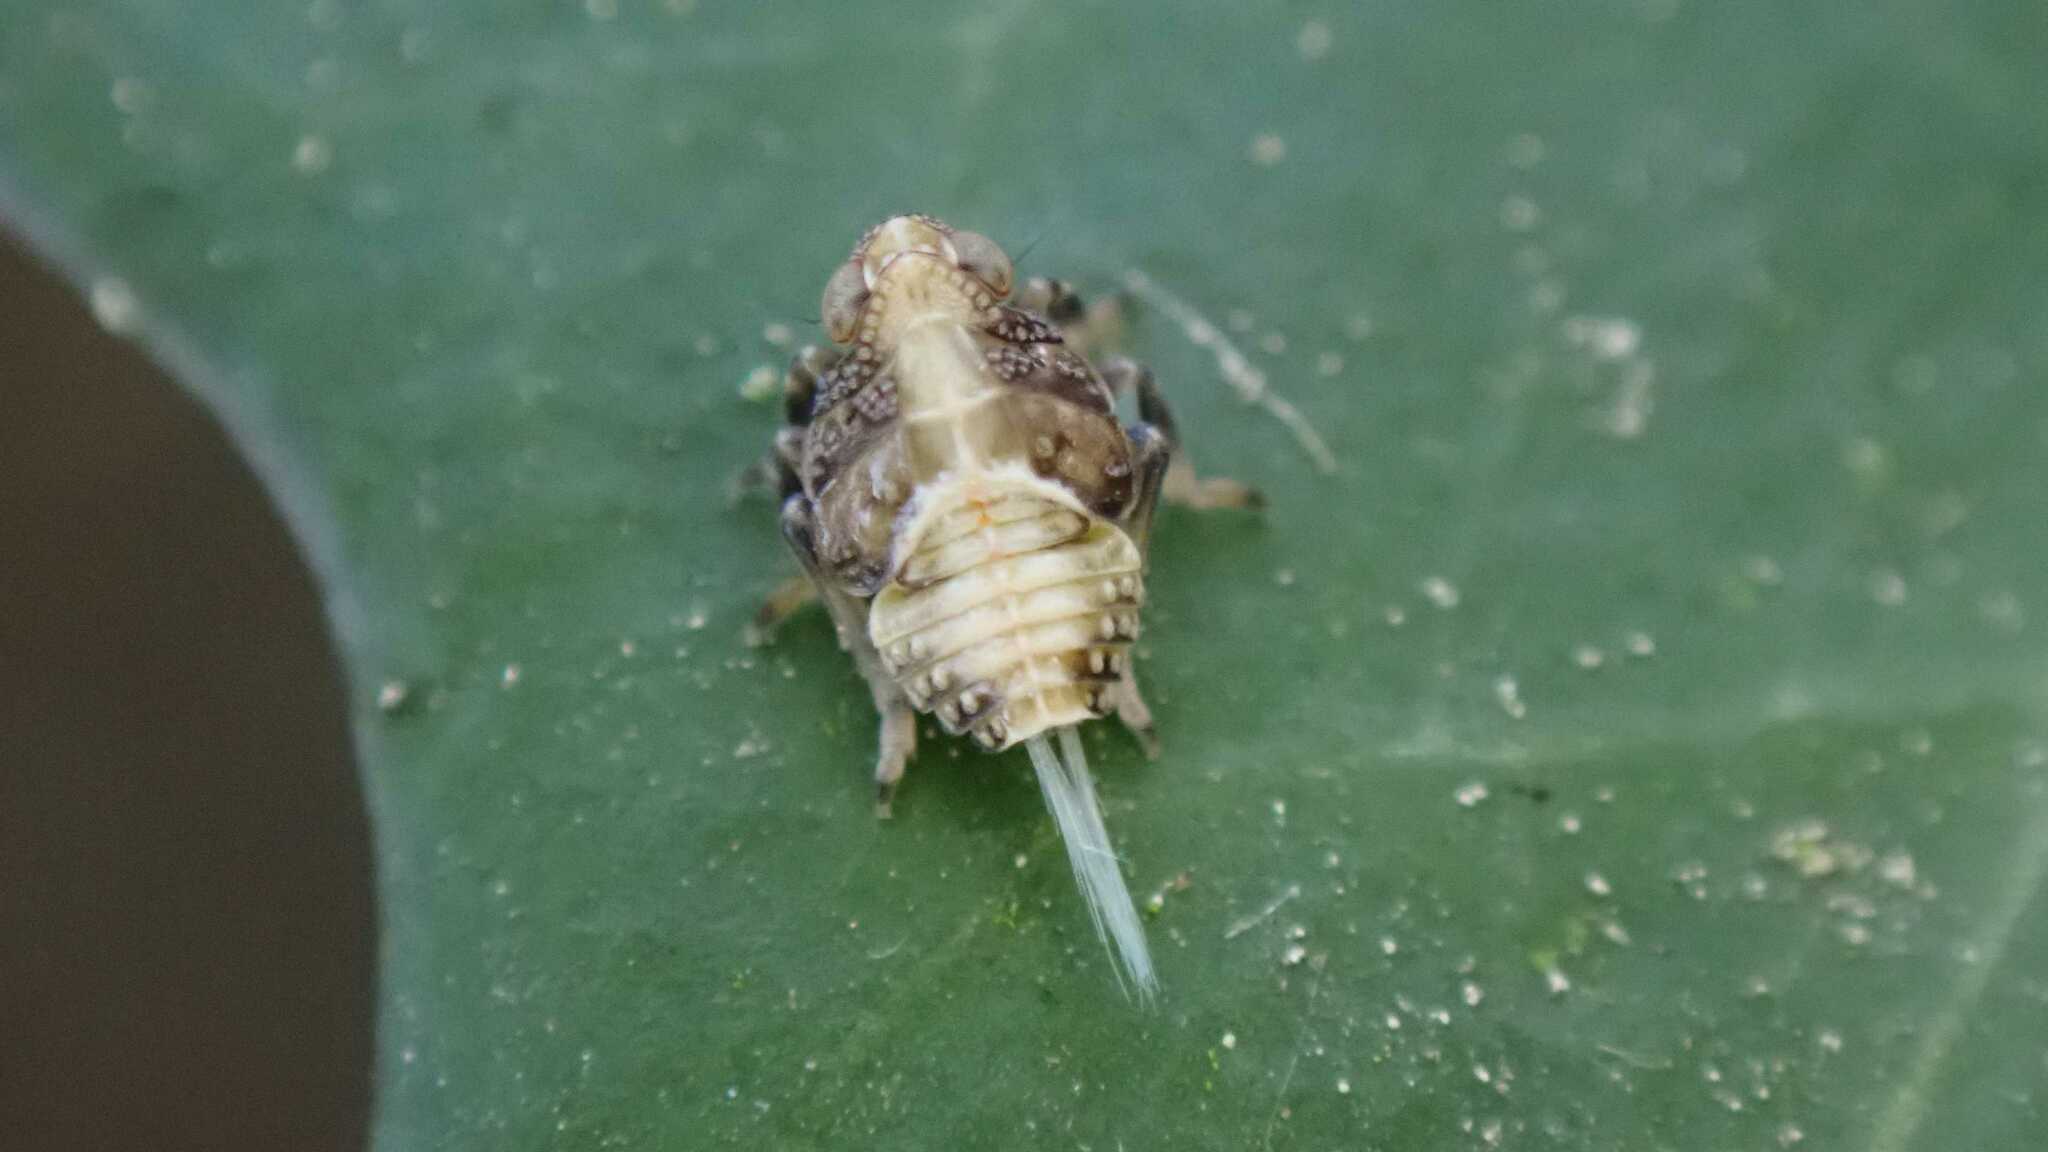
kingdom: Animalia
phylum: Arthropoda
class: Insecta
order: Hemiptera
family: Issidae
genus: Issus
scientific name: Issus
